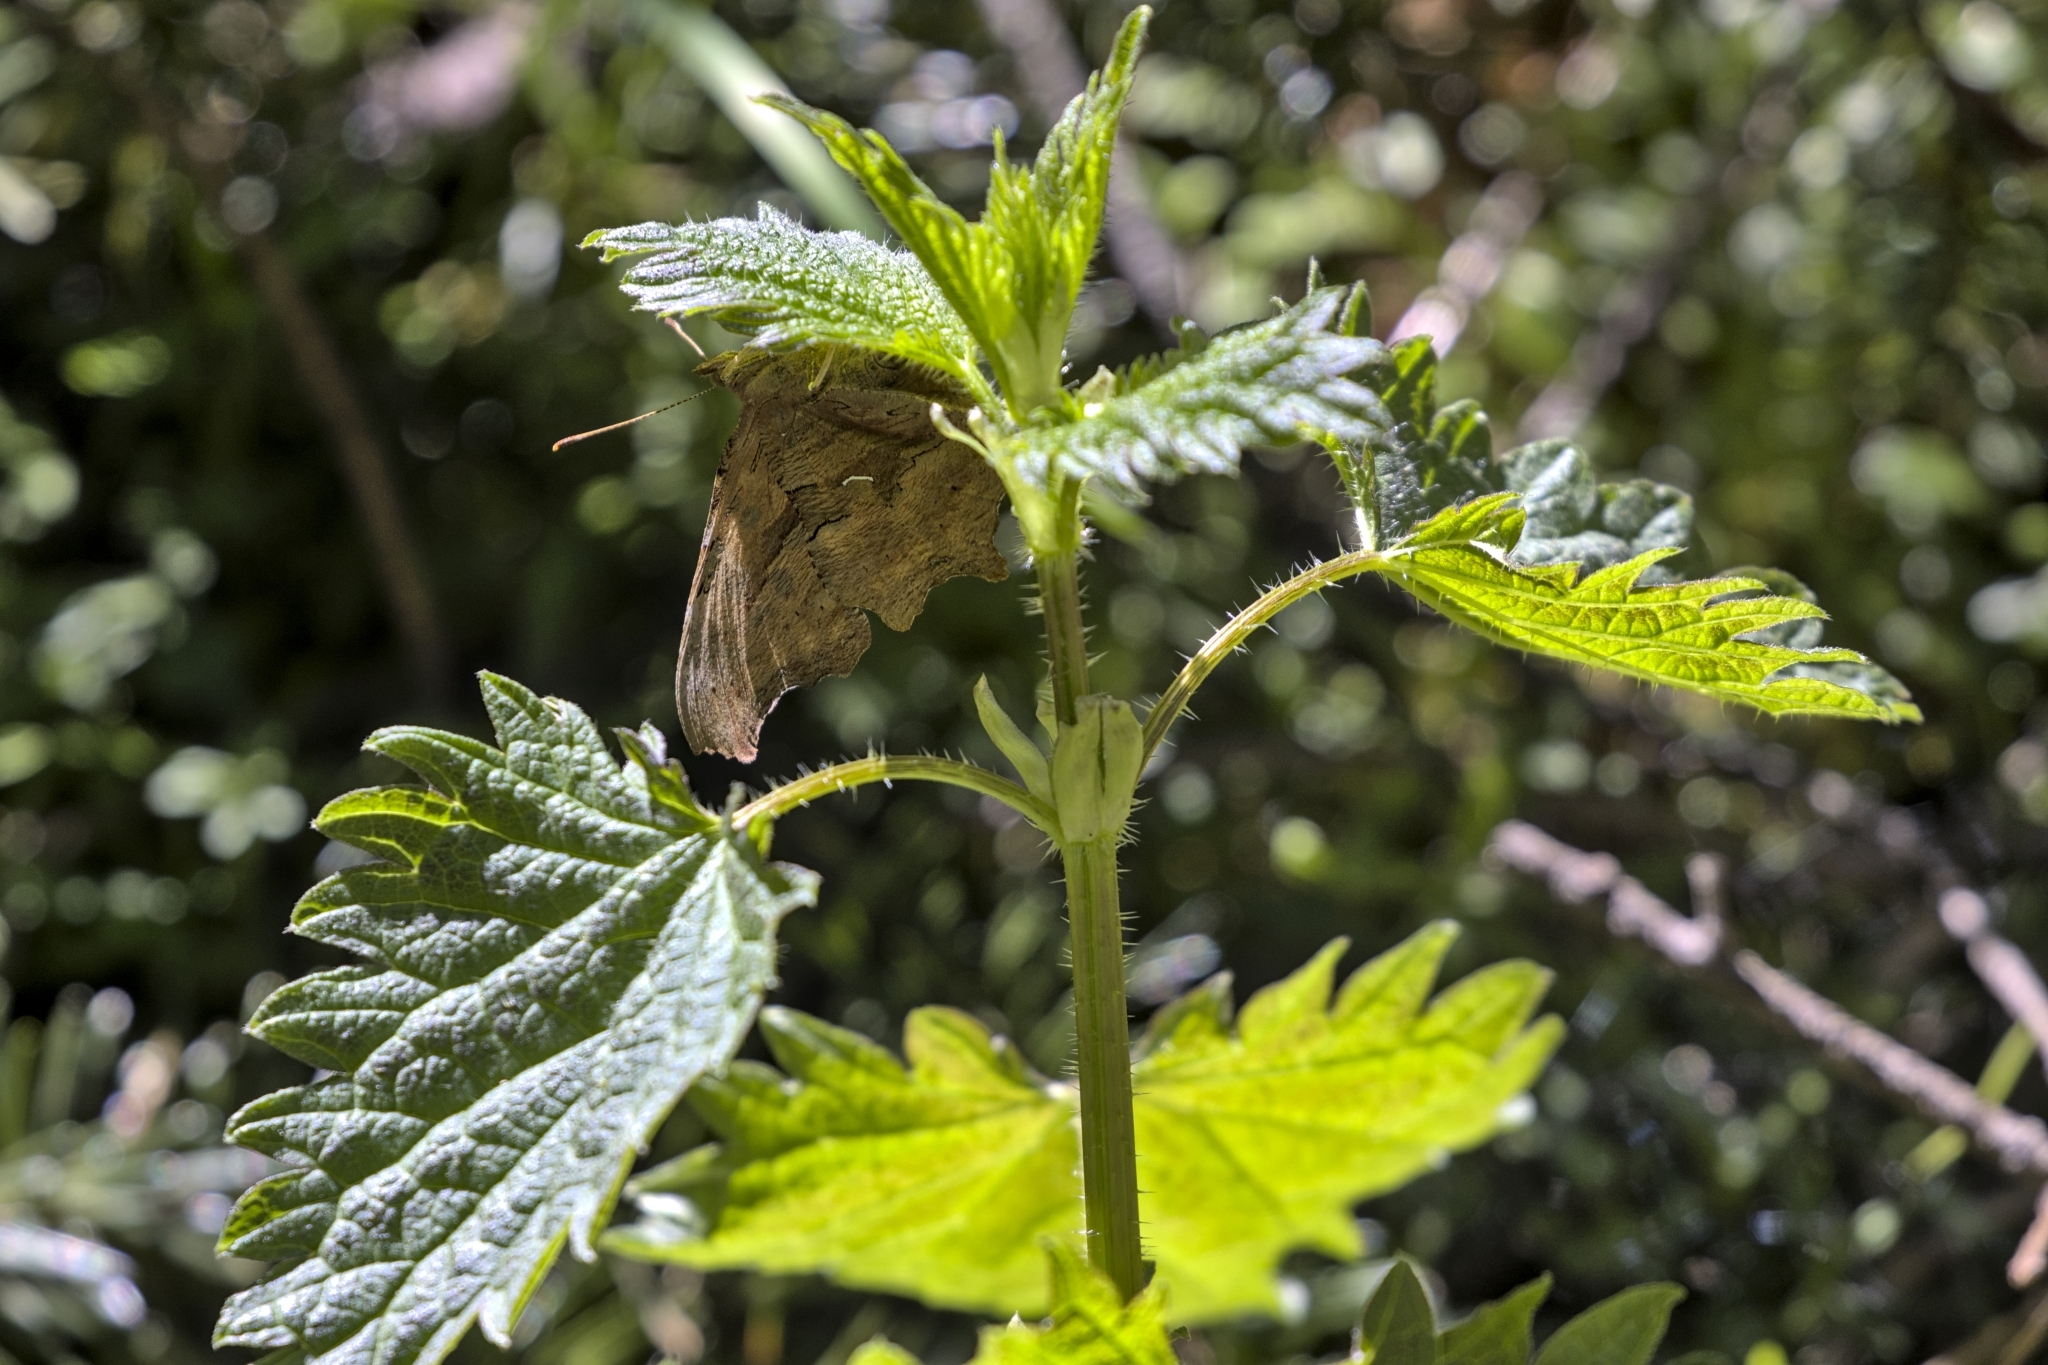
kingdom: Animalia
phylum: Arthropoda
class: Insecta
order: Lepidoptera
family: Nymphalidae
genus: Polygonia
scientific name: Polygonia satyrus
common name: Satyr angle wing
